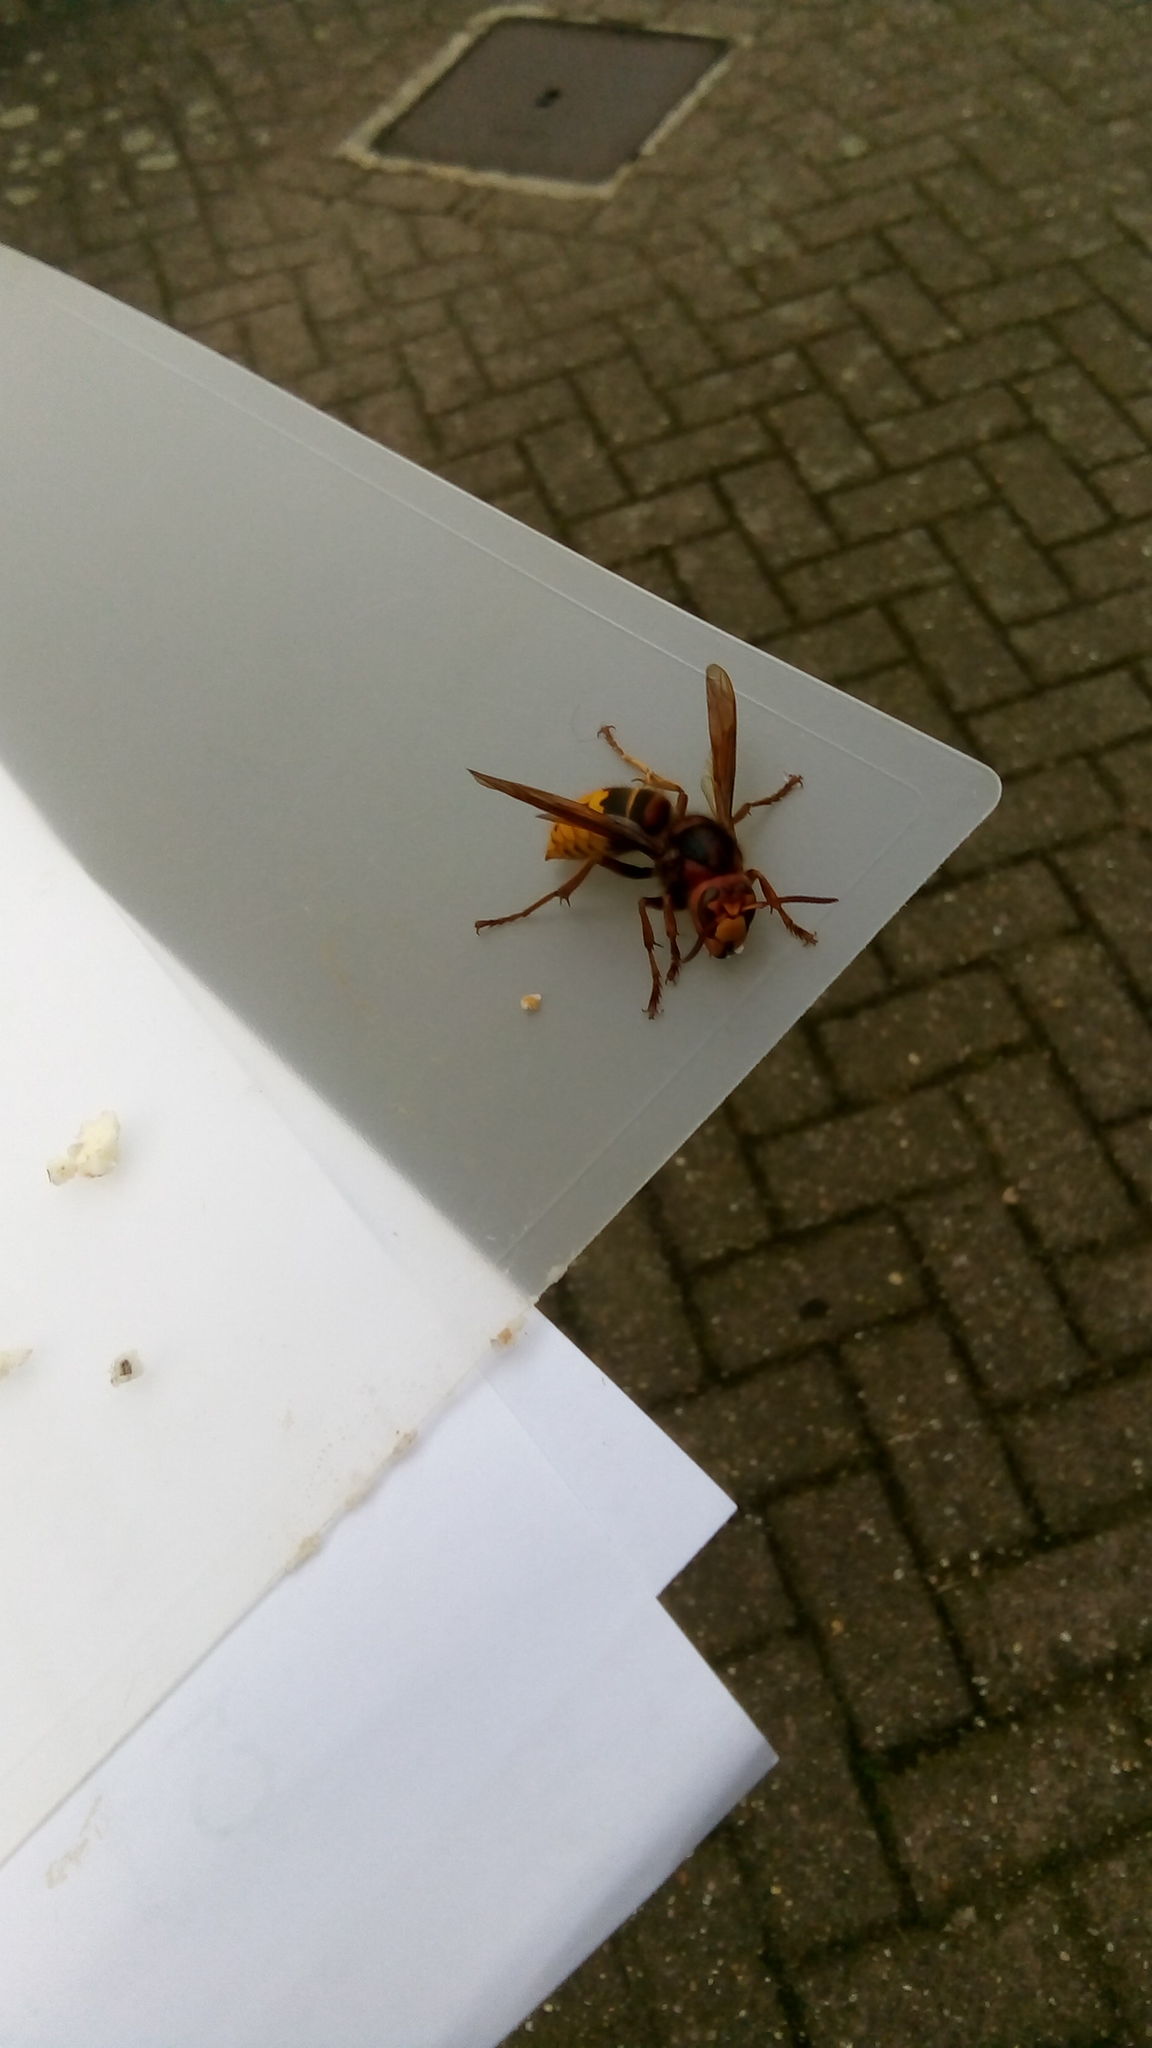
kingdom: Animalia
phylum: Arthropoda
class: Insecta
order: Hymenoptera
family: Vespidae
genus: Vespa
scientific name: Vespa crabro
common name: Hornet
